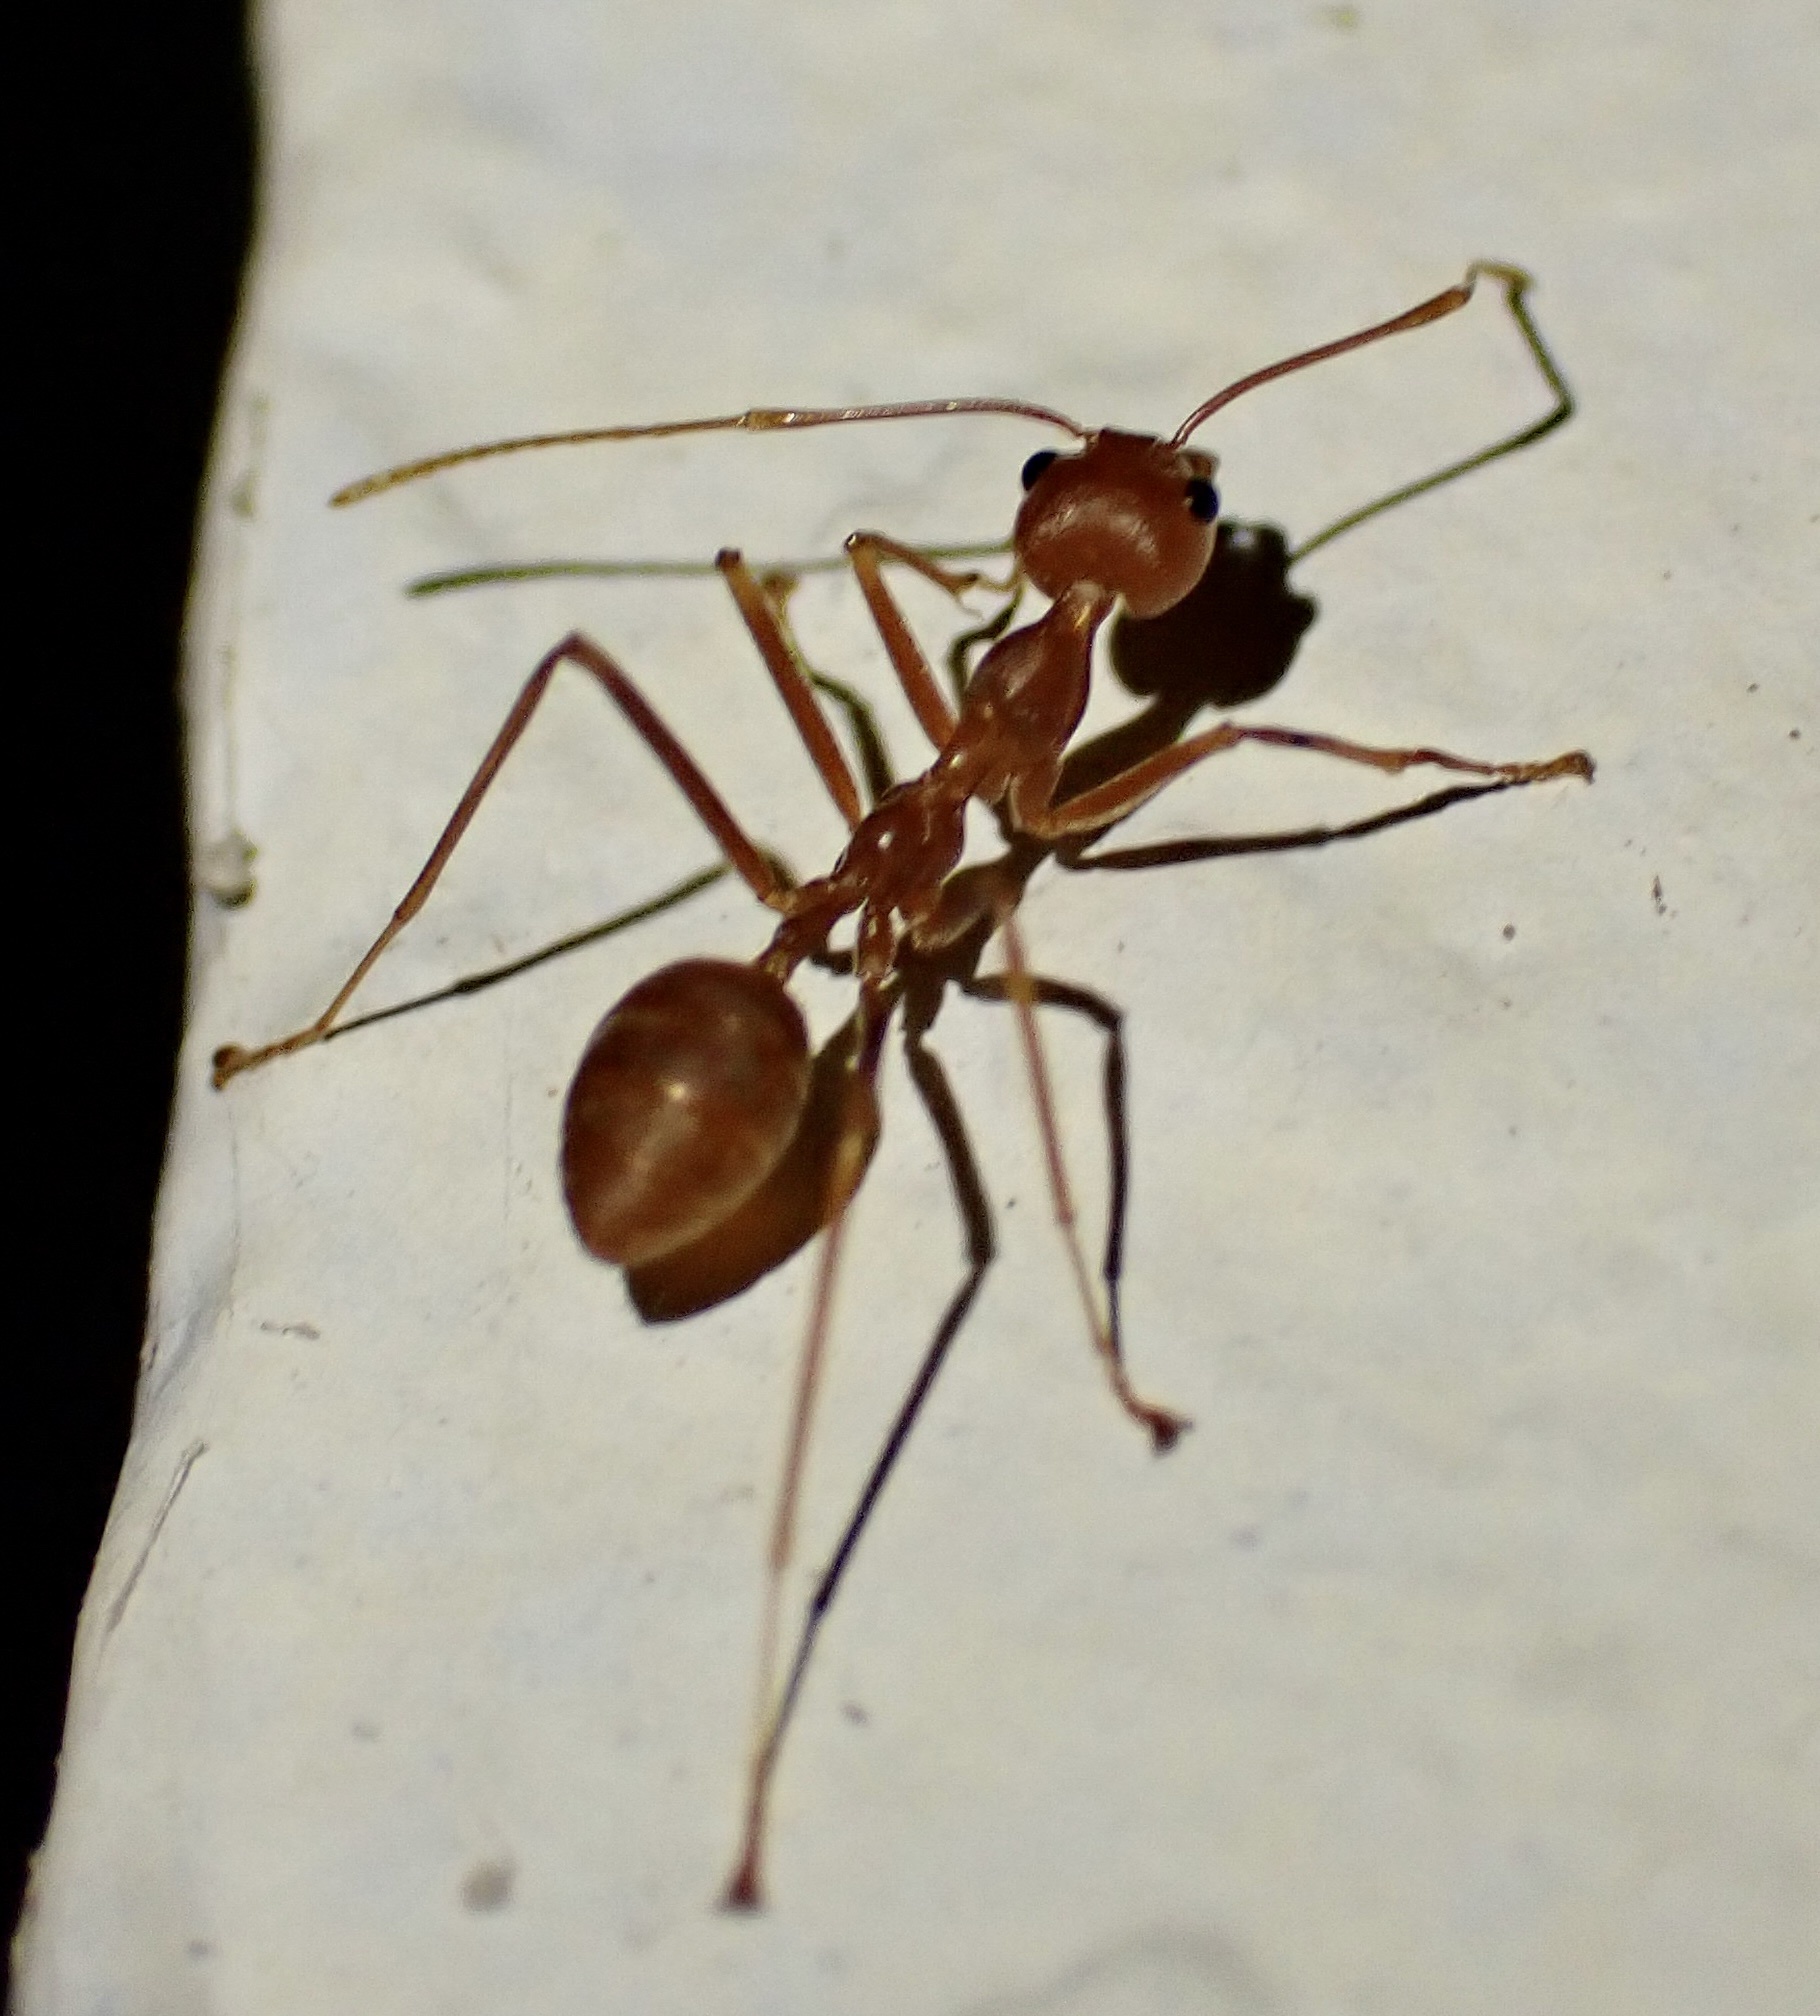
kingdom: Animalia
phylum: Arthropoda
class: Insecta
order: Hymenoptera
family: Formicidae
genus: Oecophylla
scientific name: Oecophylla smaragdina
